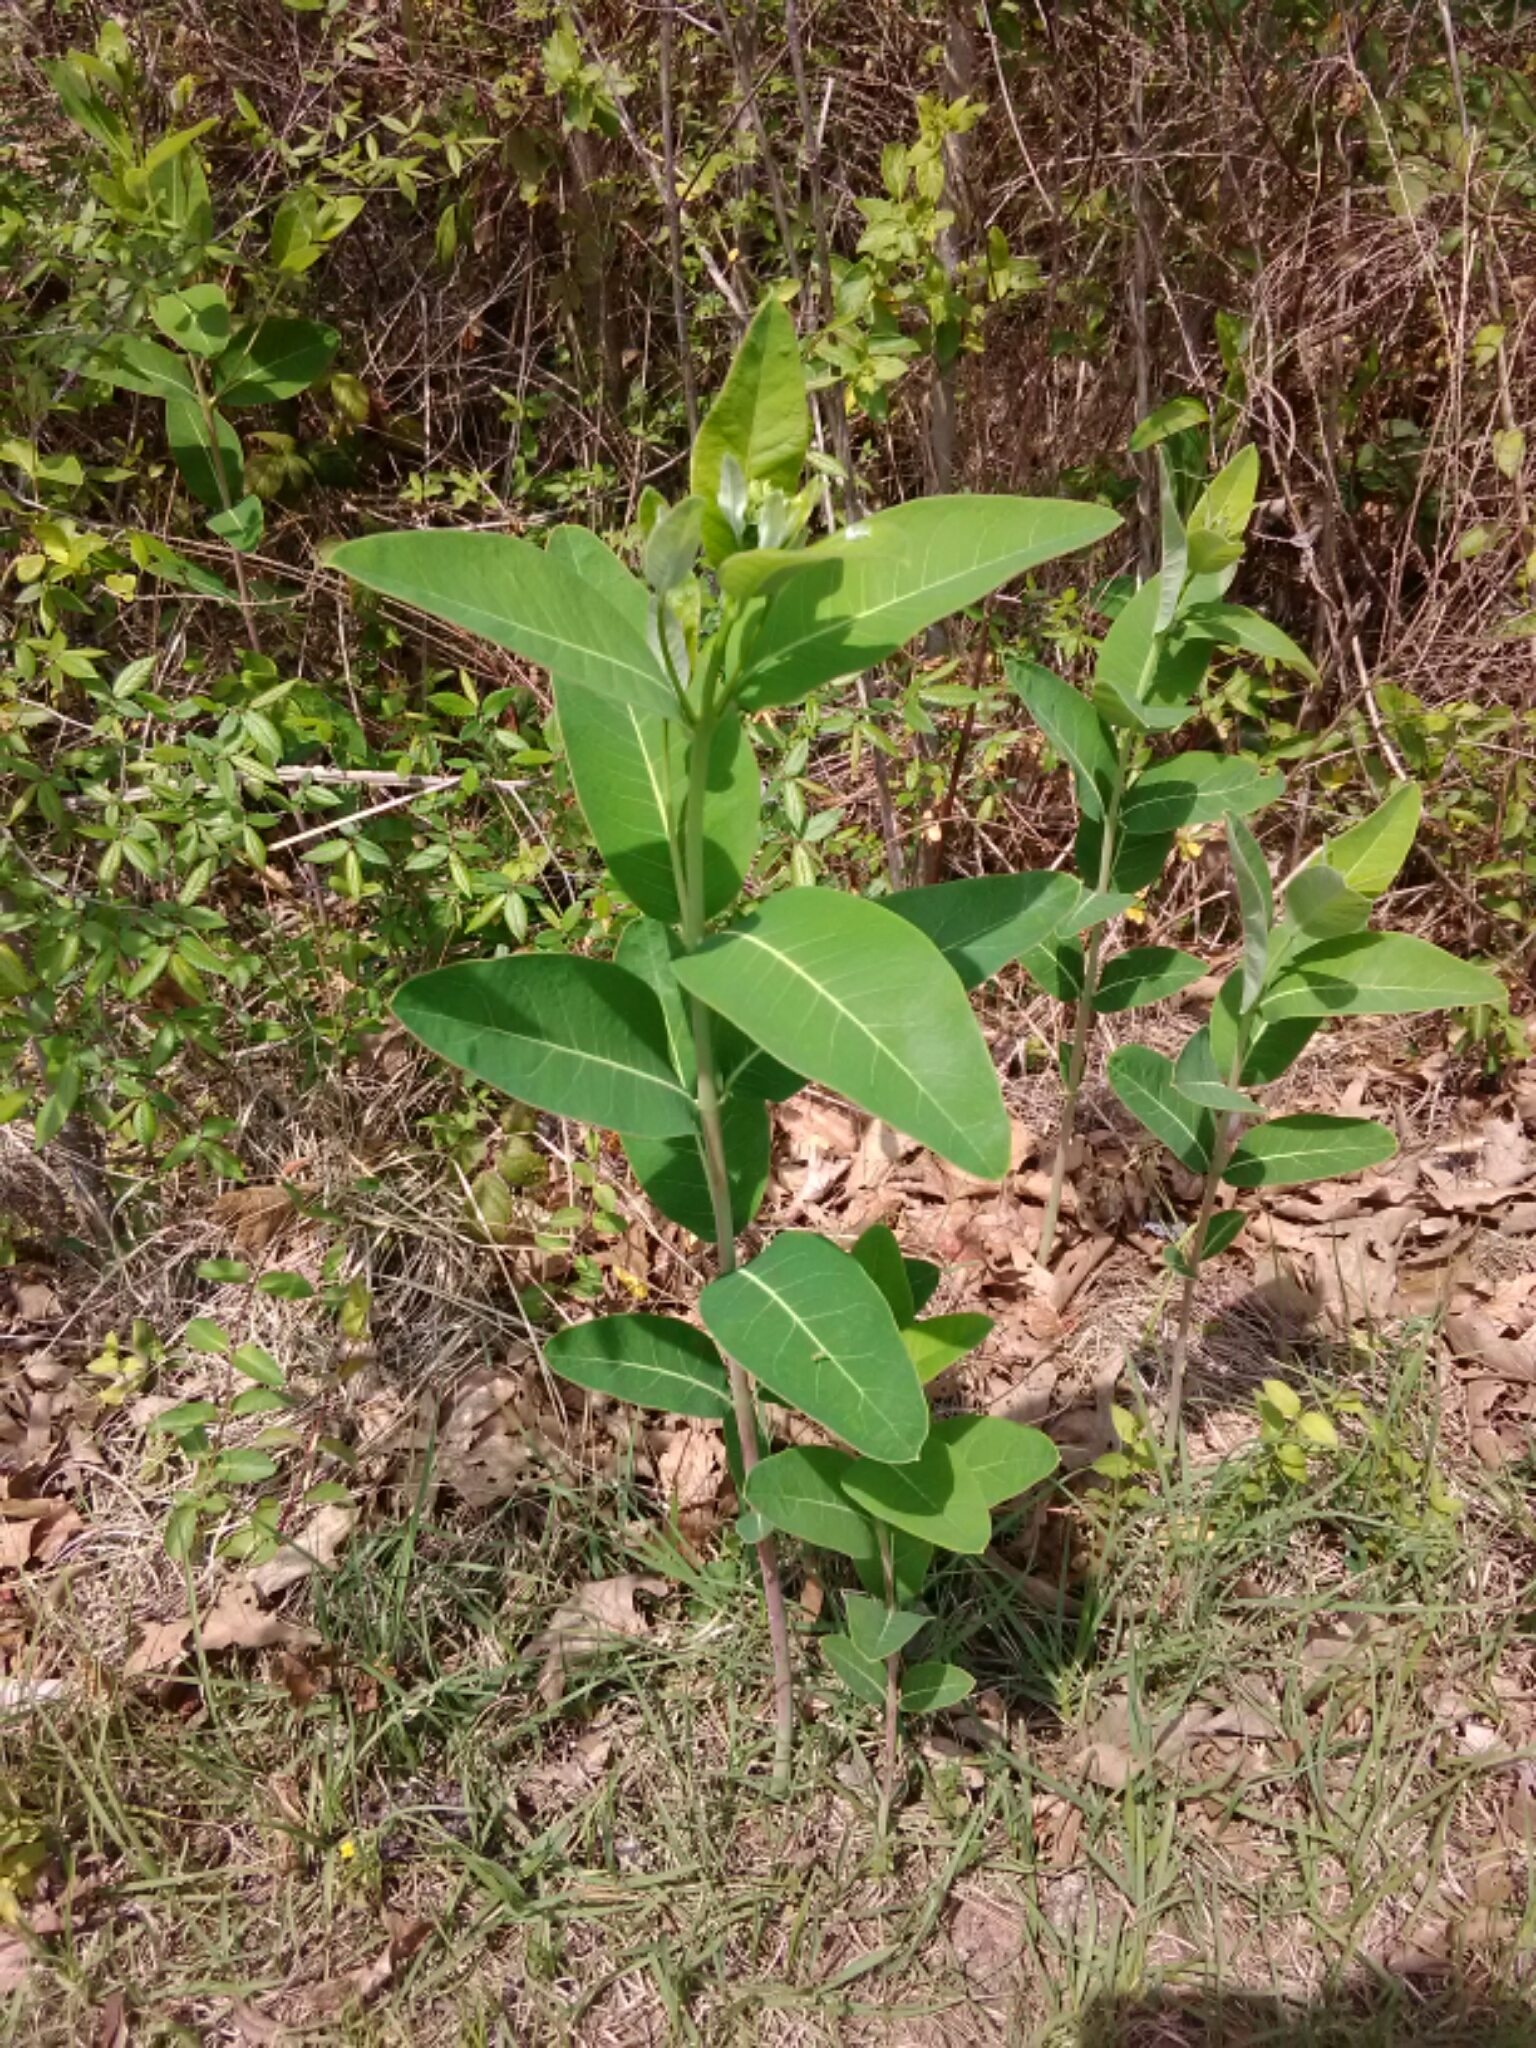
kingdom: Plantae
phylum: Tracheophyta
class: Magnoliopsida
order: Gentianales
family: Apocynaceae
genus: Apocynum
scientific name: Apocynum cannabinum
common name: Hemp dogbane
